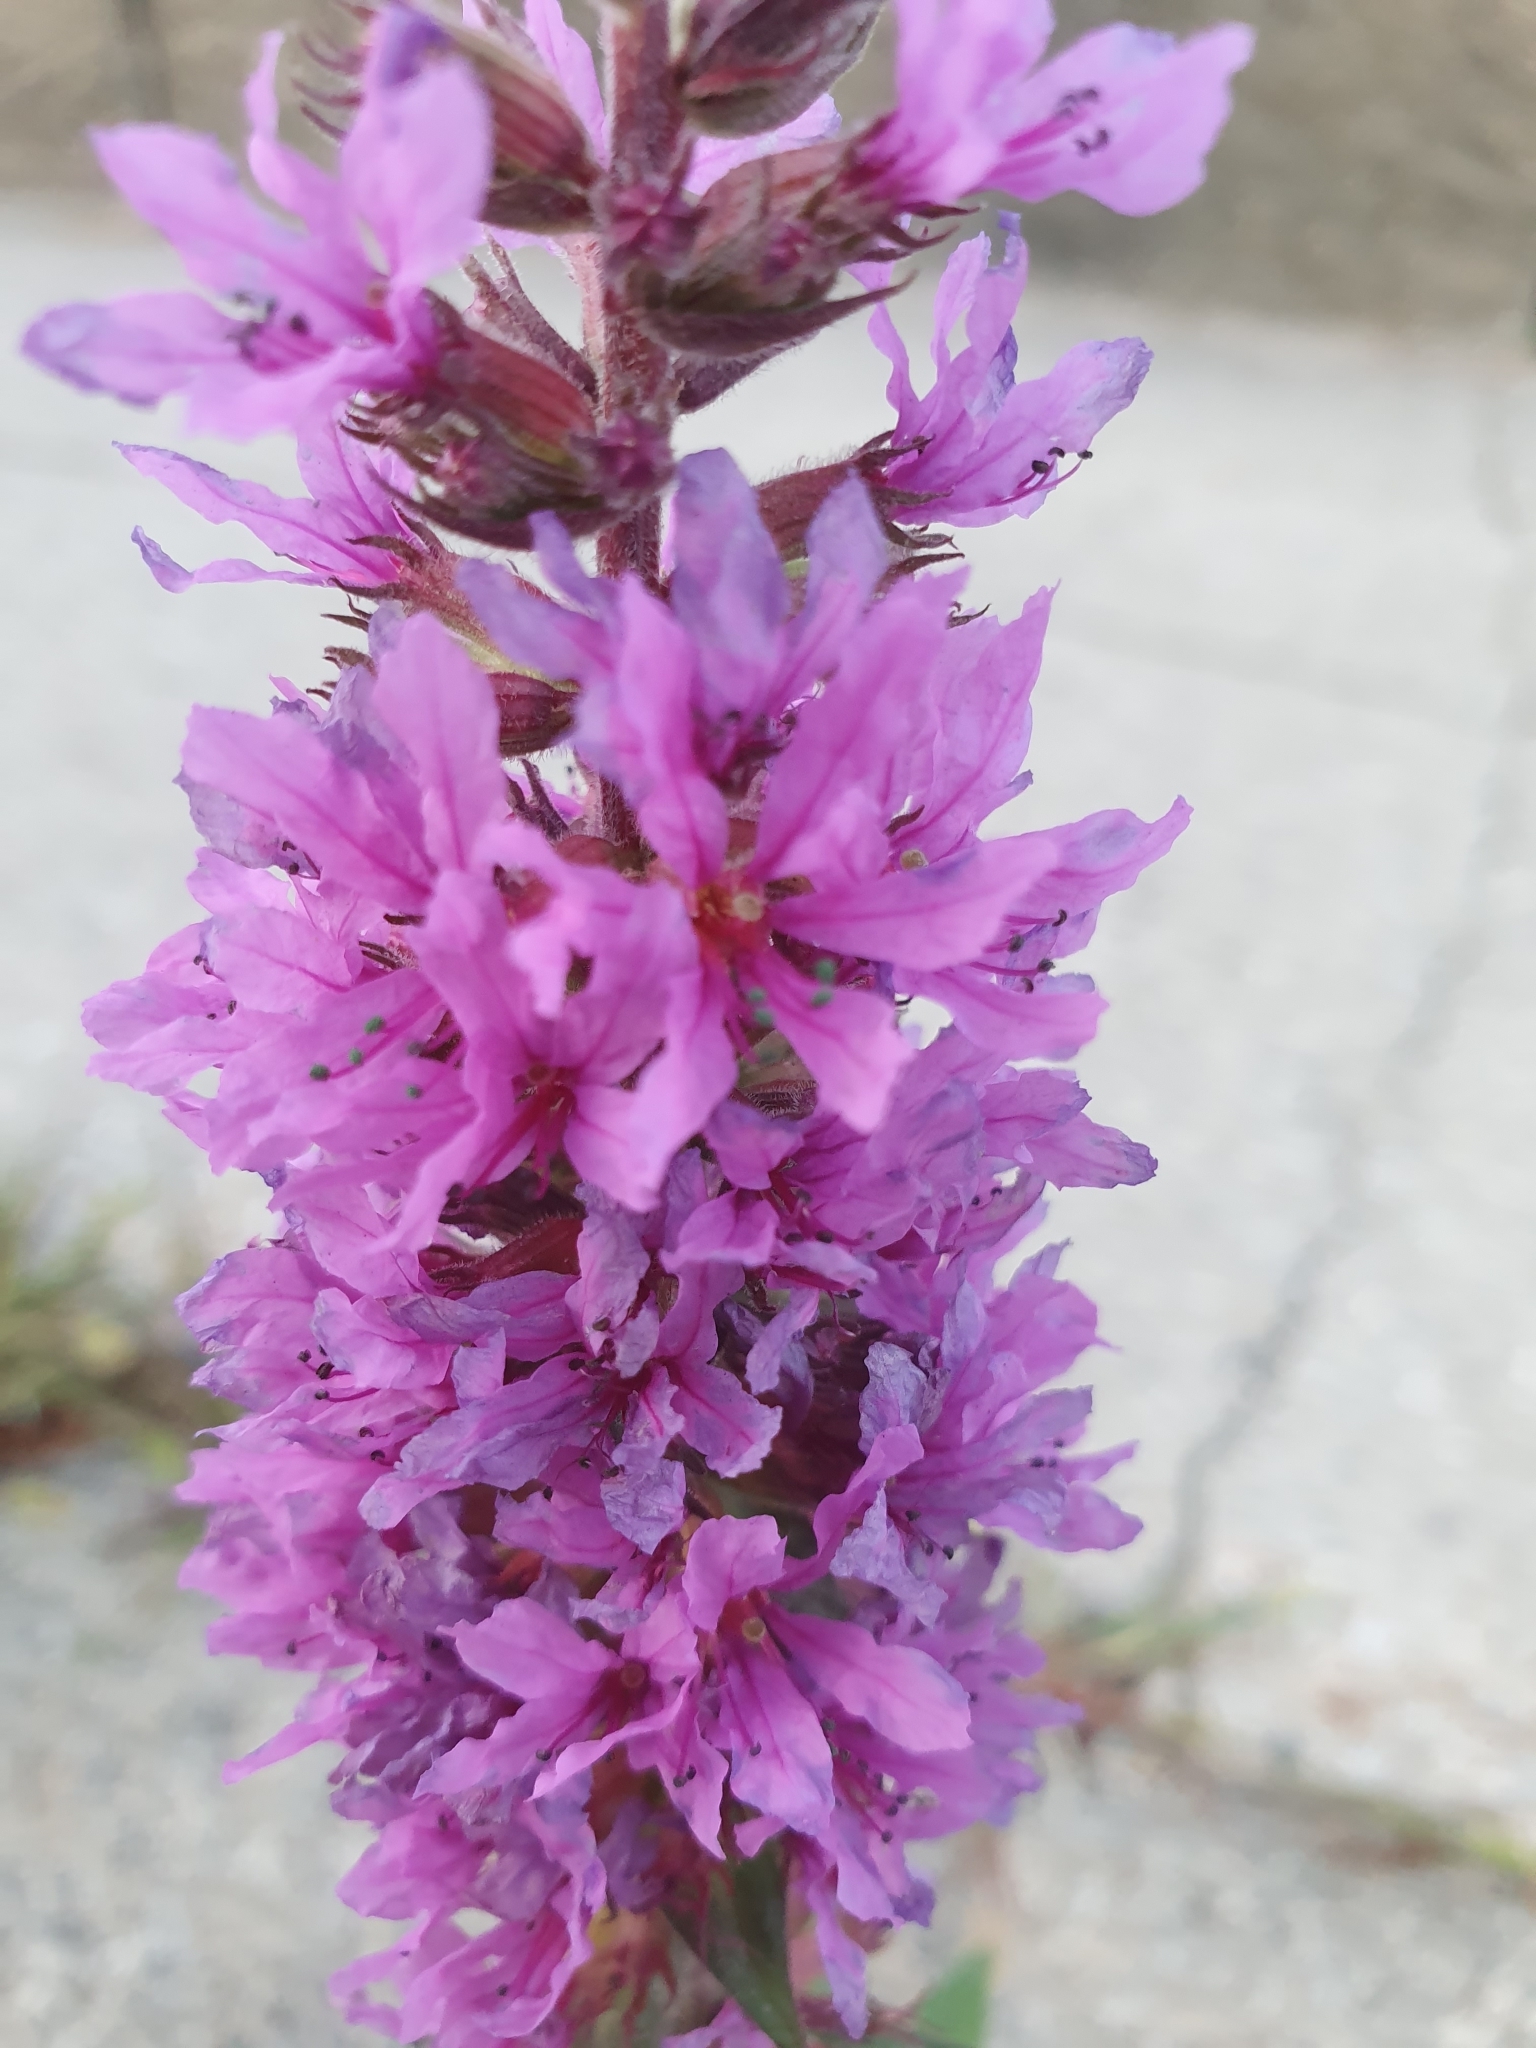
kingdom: Plantae
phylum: Tracheophyta
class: Magnoliopsida
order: Myrtales
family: Lythraceae
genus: Lythrum
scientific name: Lythrum salicaria
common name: Purple loosestrife
